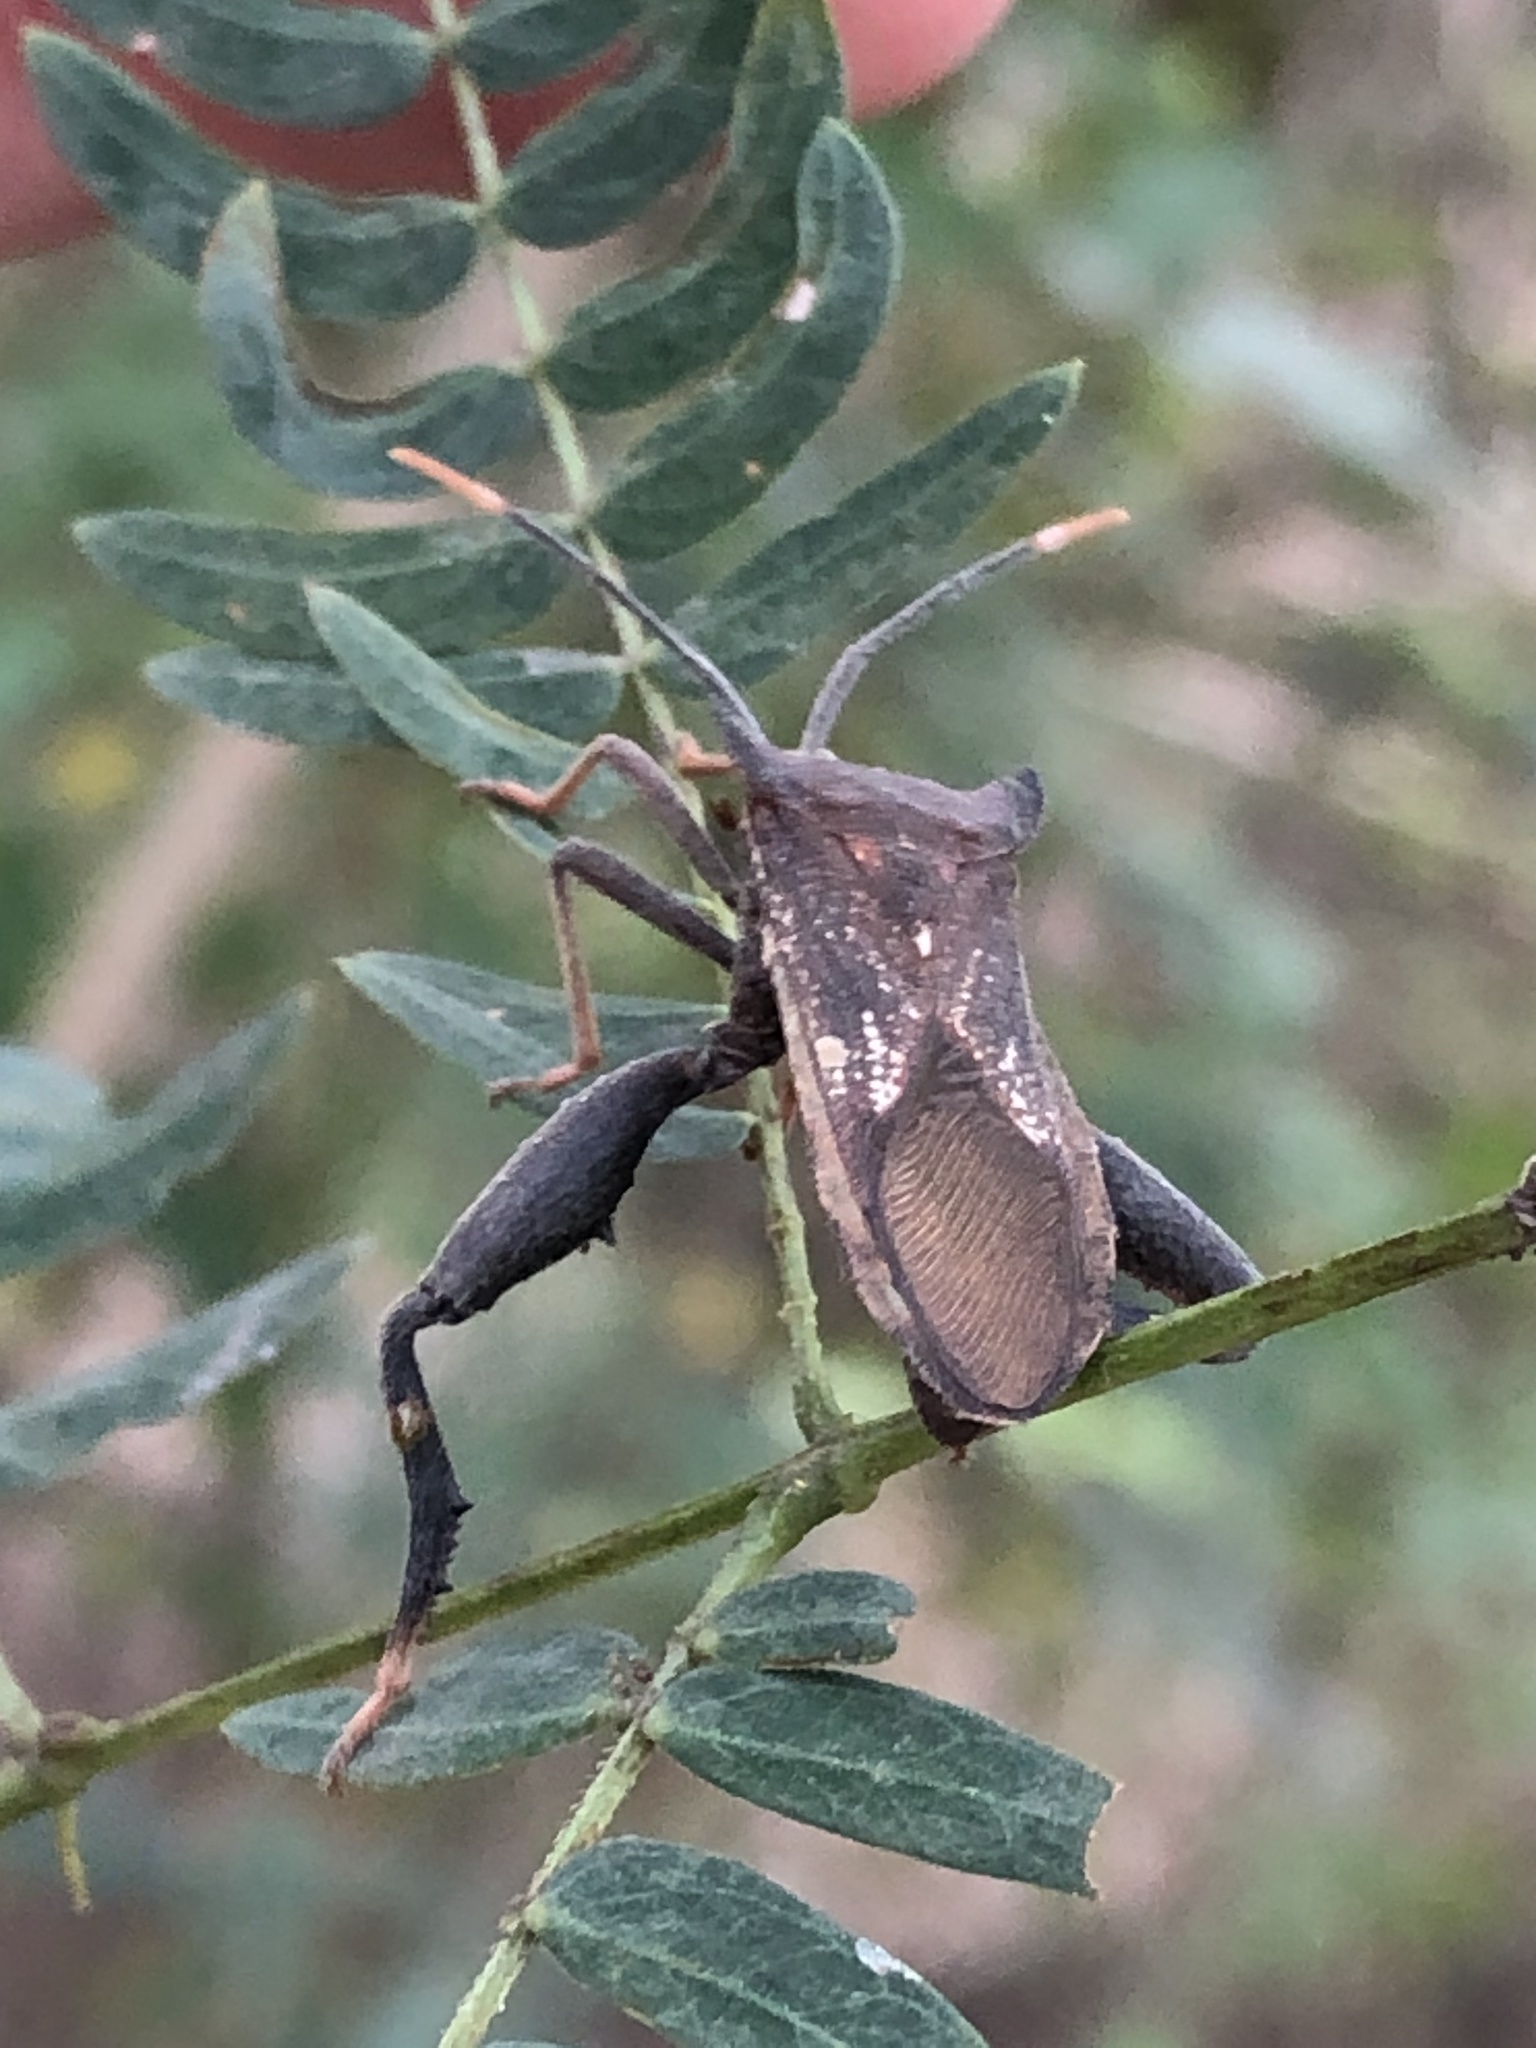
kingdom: Animalia
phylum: Arthropoda
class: Insecta
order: Hemiptera
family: Coreidae
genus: Mozena
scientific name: Mozena lunata
